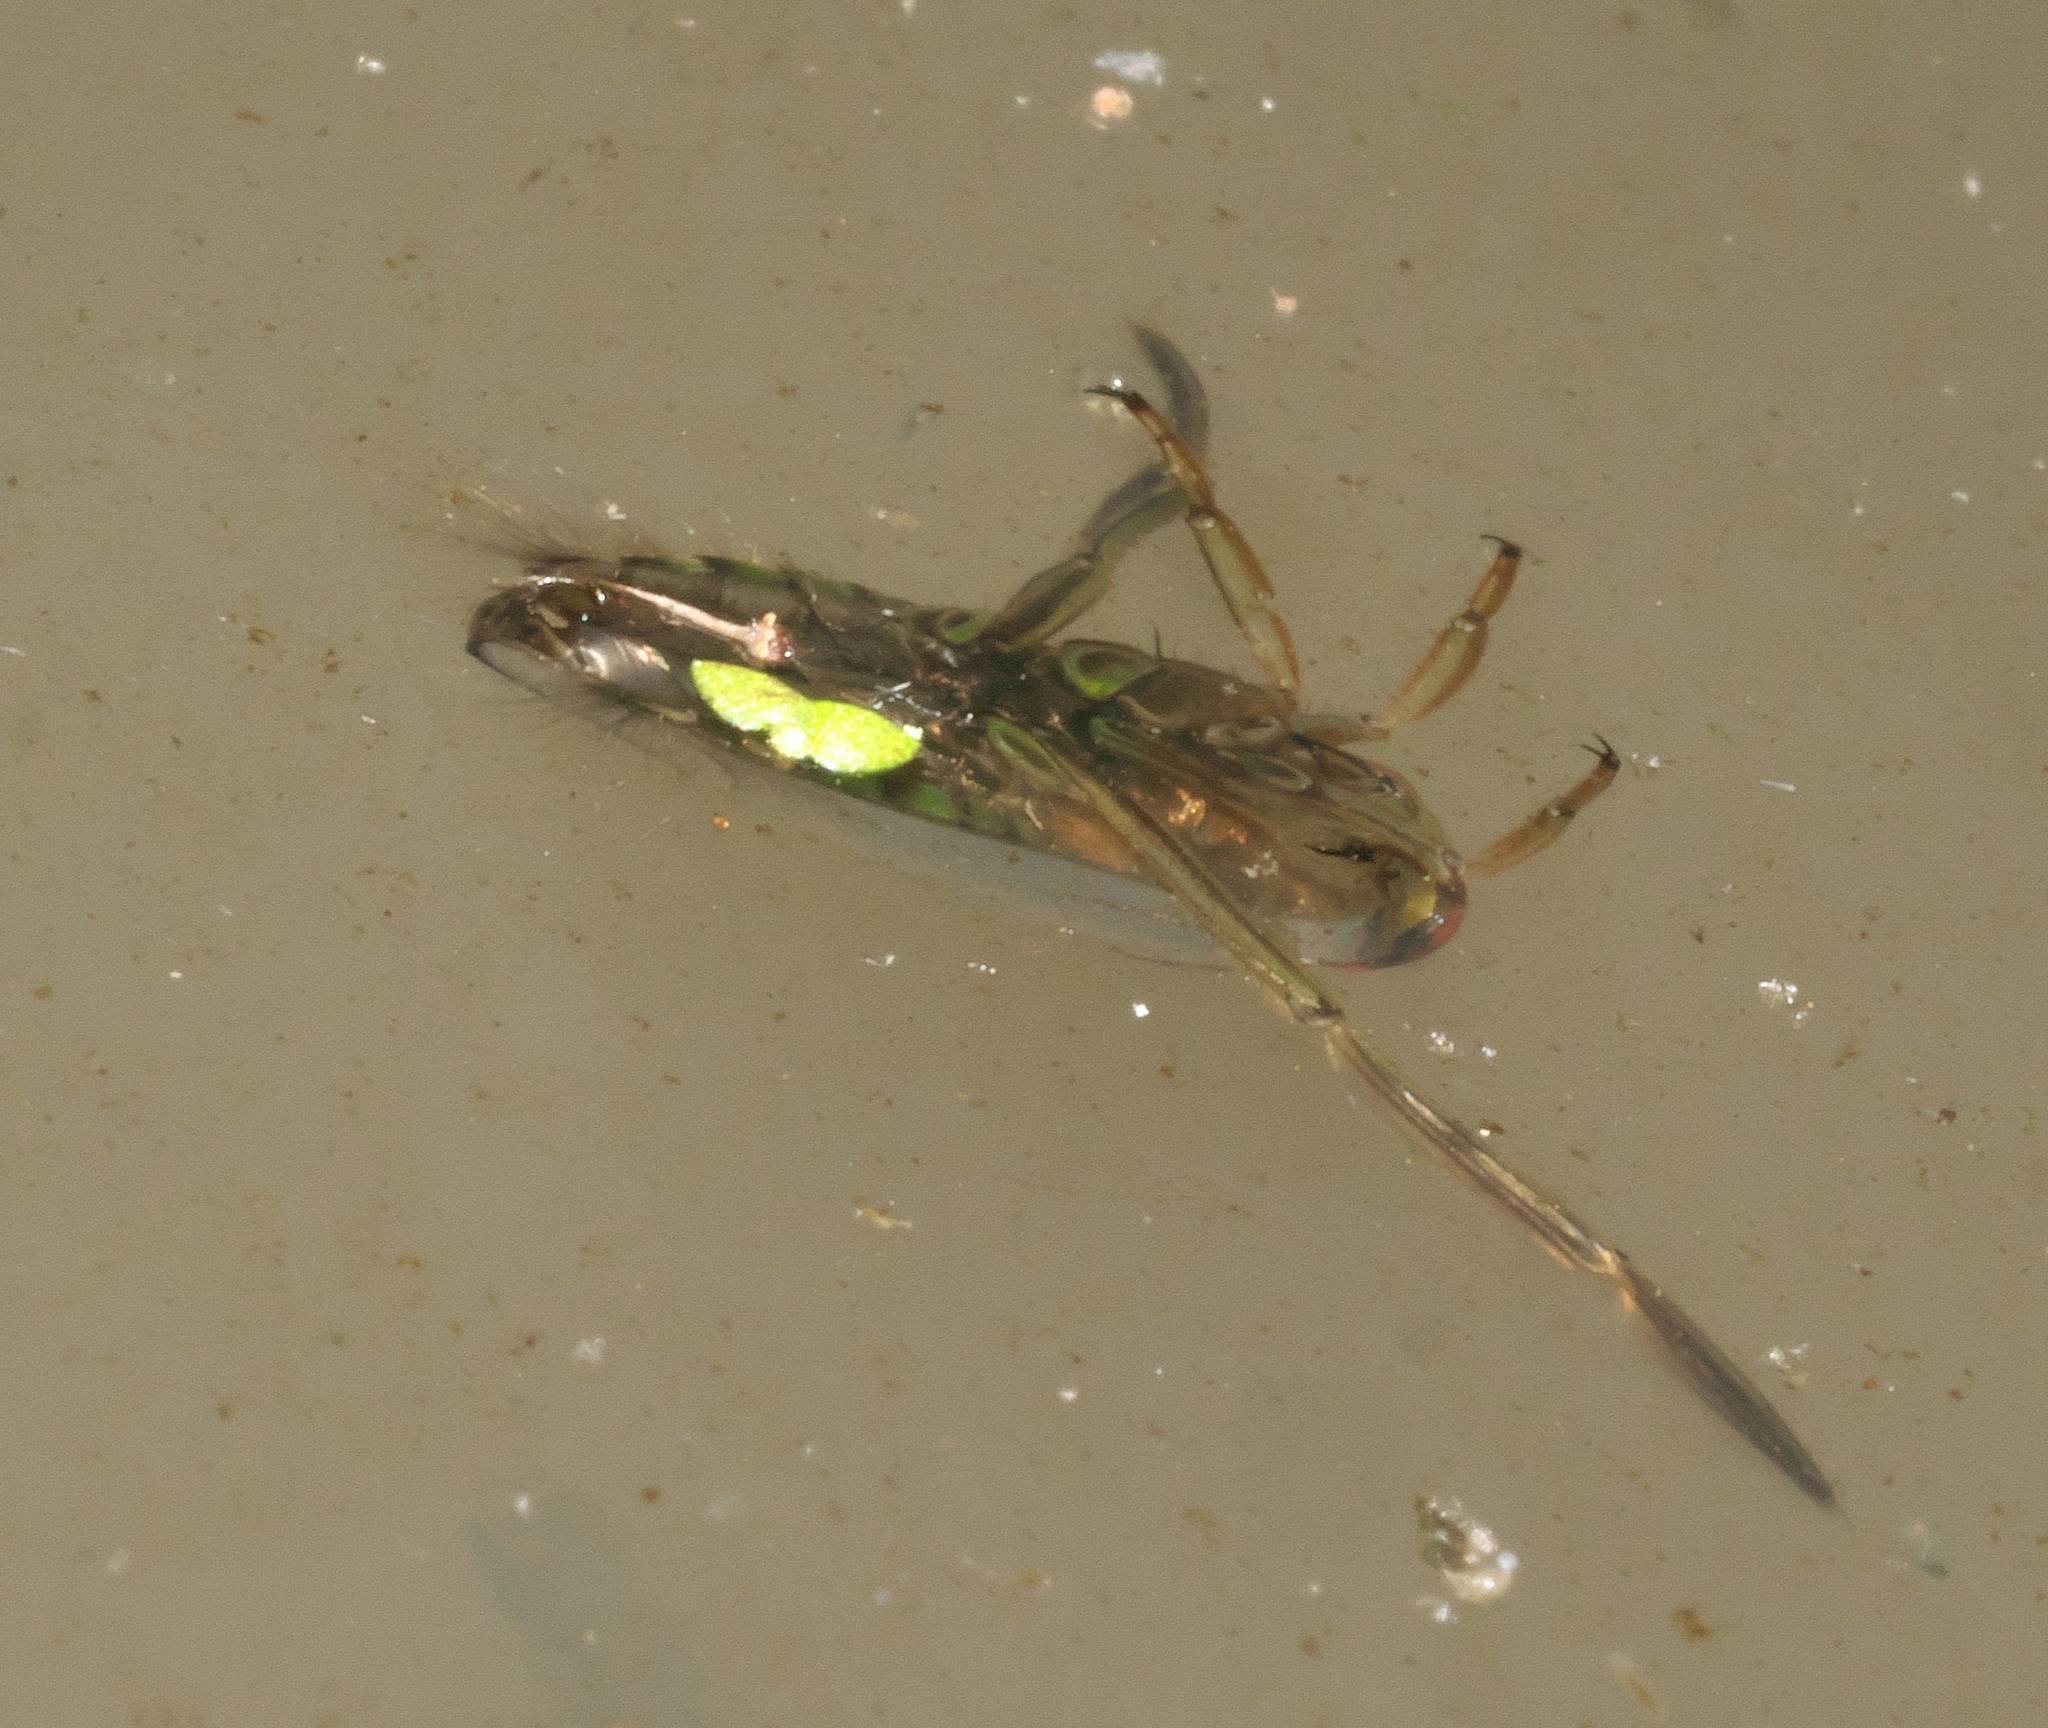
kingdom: Animalia
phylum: Arthropoda
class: Insecta
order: Hemiptera
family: Notonectidae
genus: Notonecta
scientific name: Notonecta
